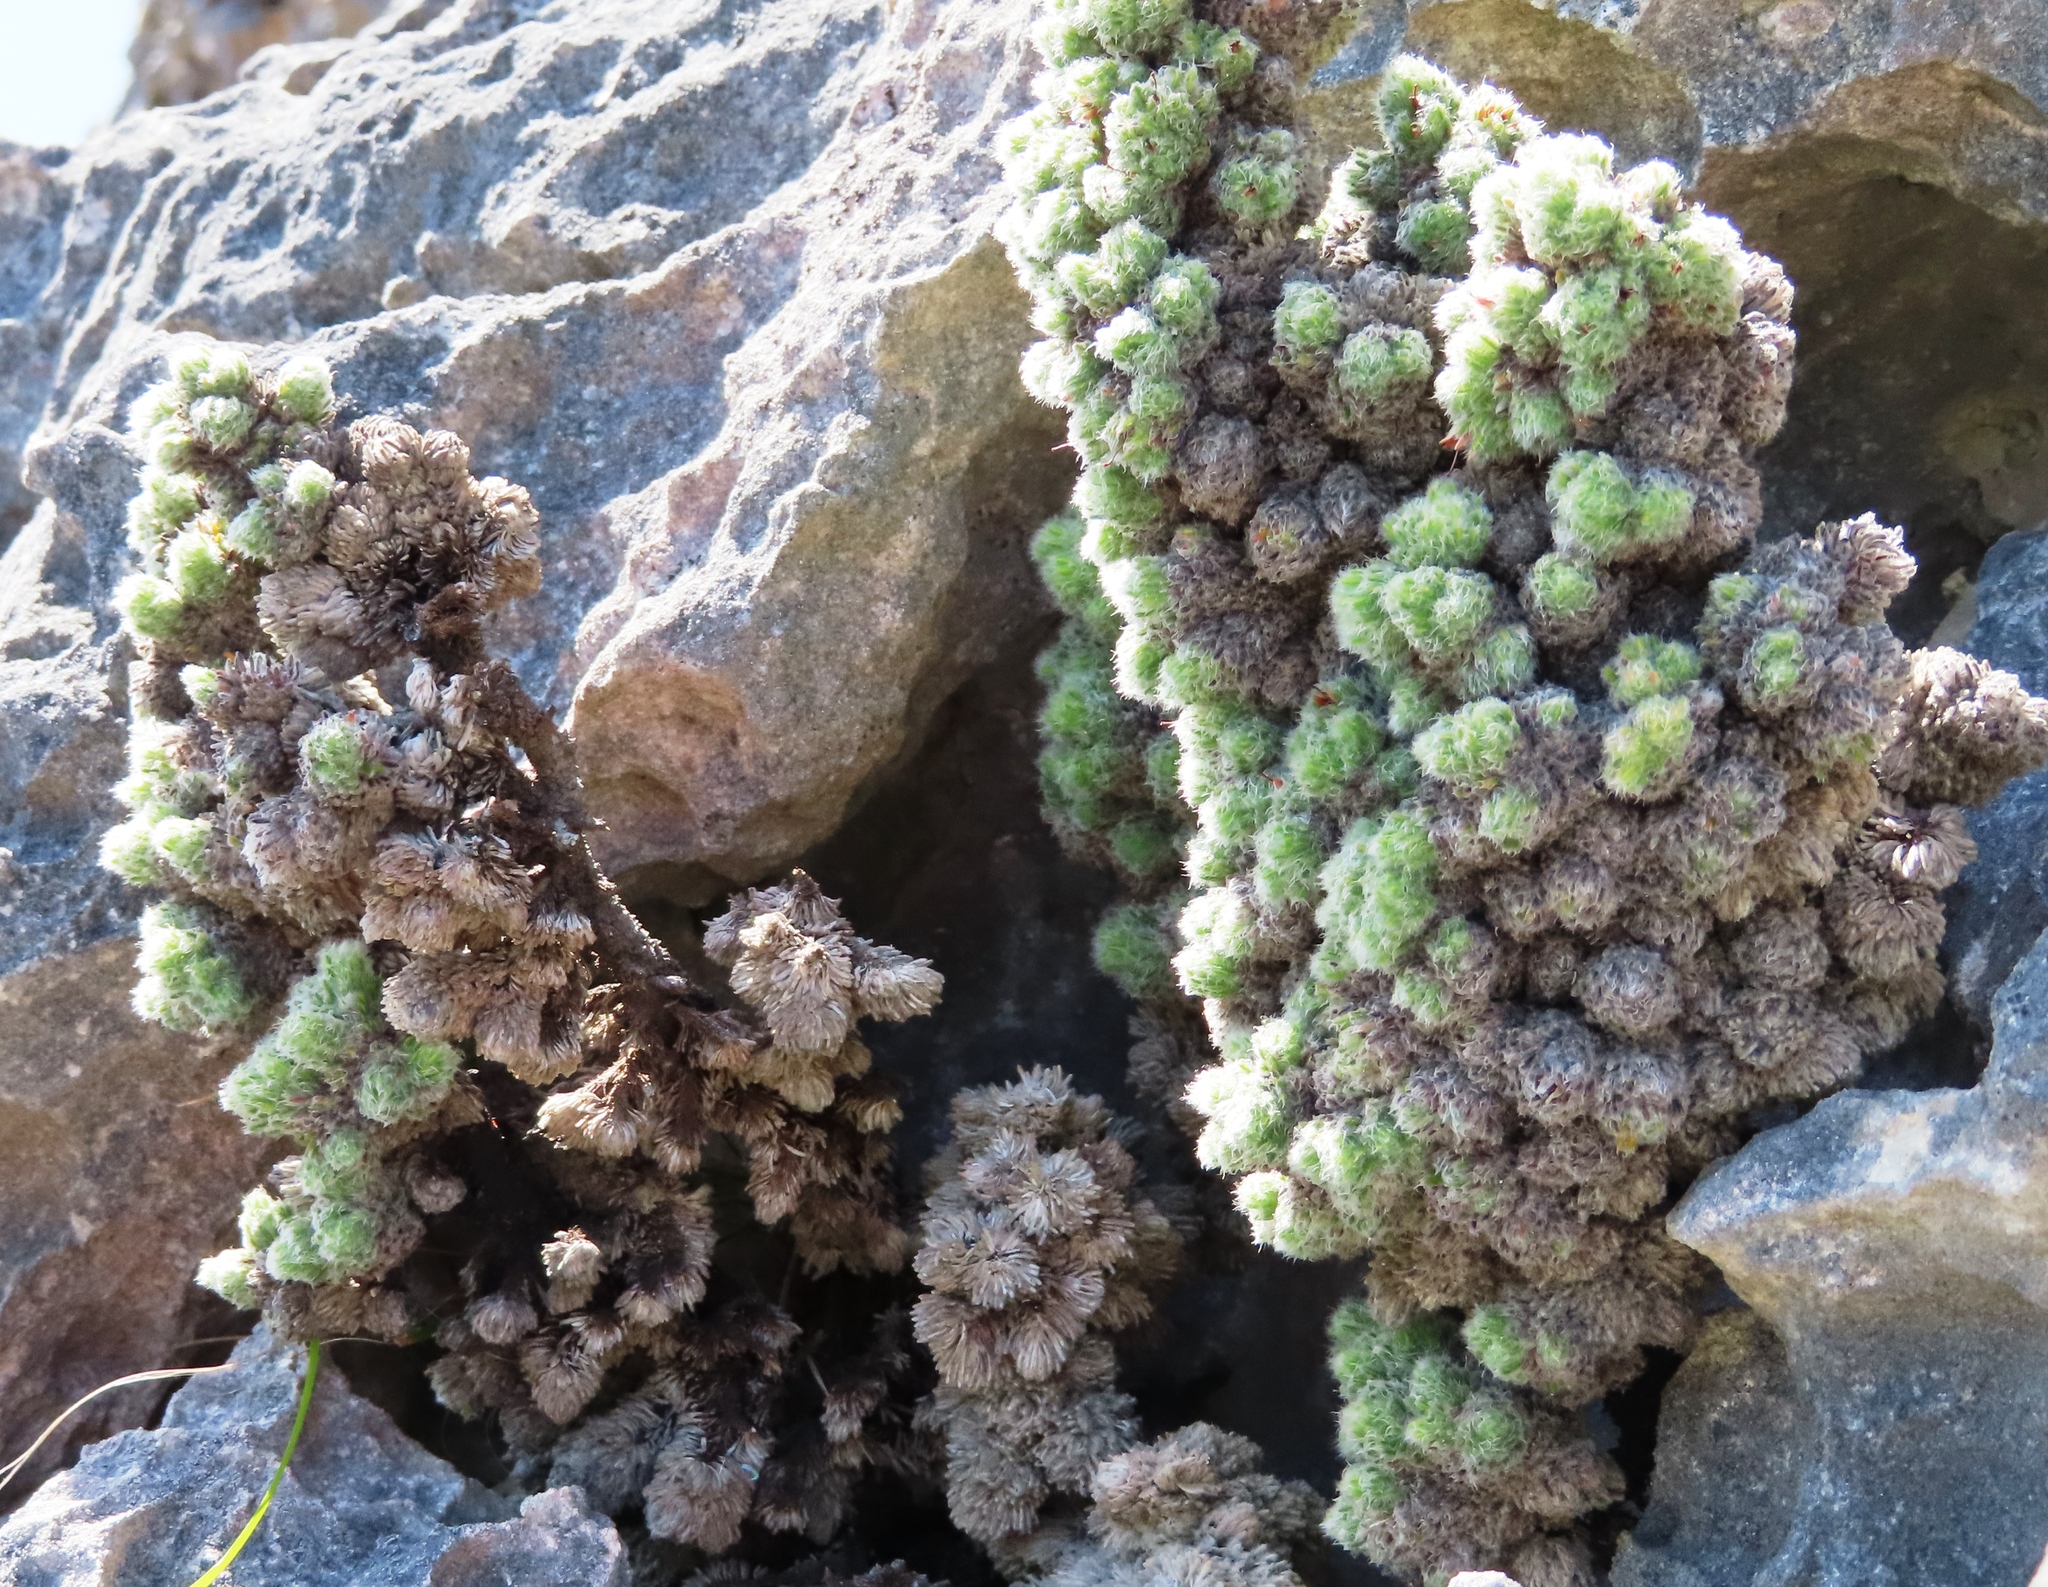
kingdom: Plantae
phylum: Tracheophyta
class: Magnoliopsida
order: Ericales
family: Ericaceae
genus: Erica
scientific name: Erica occulta
